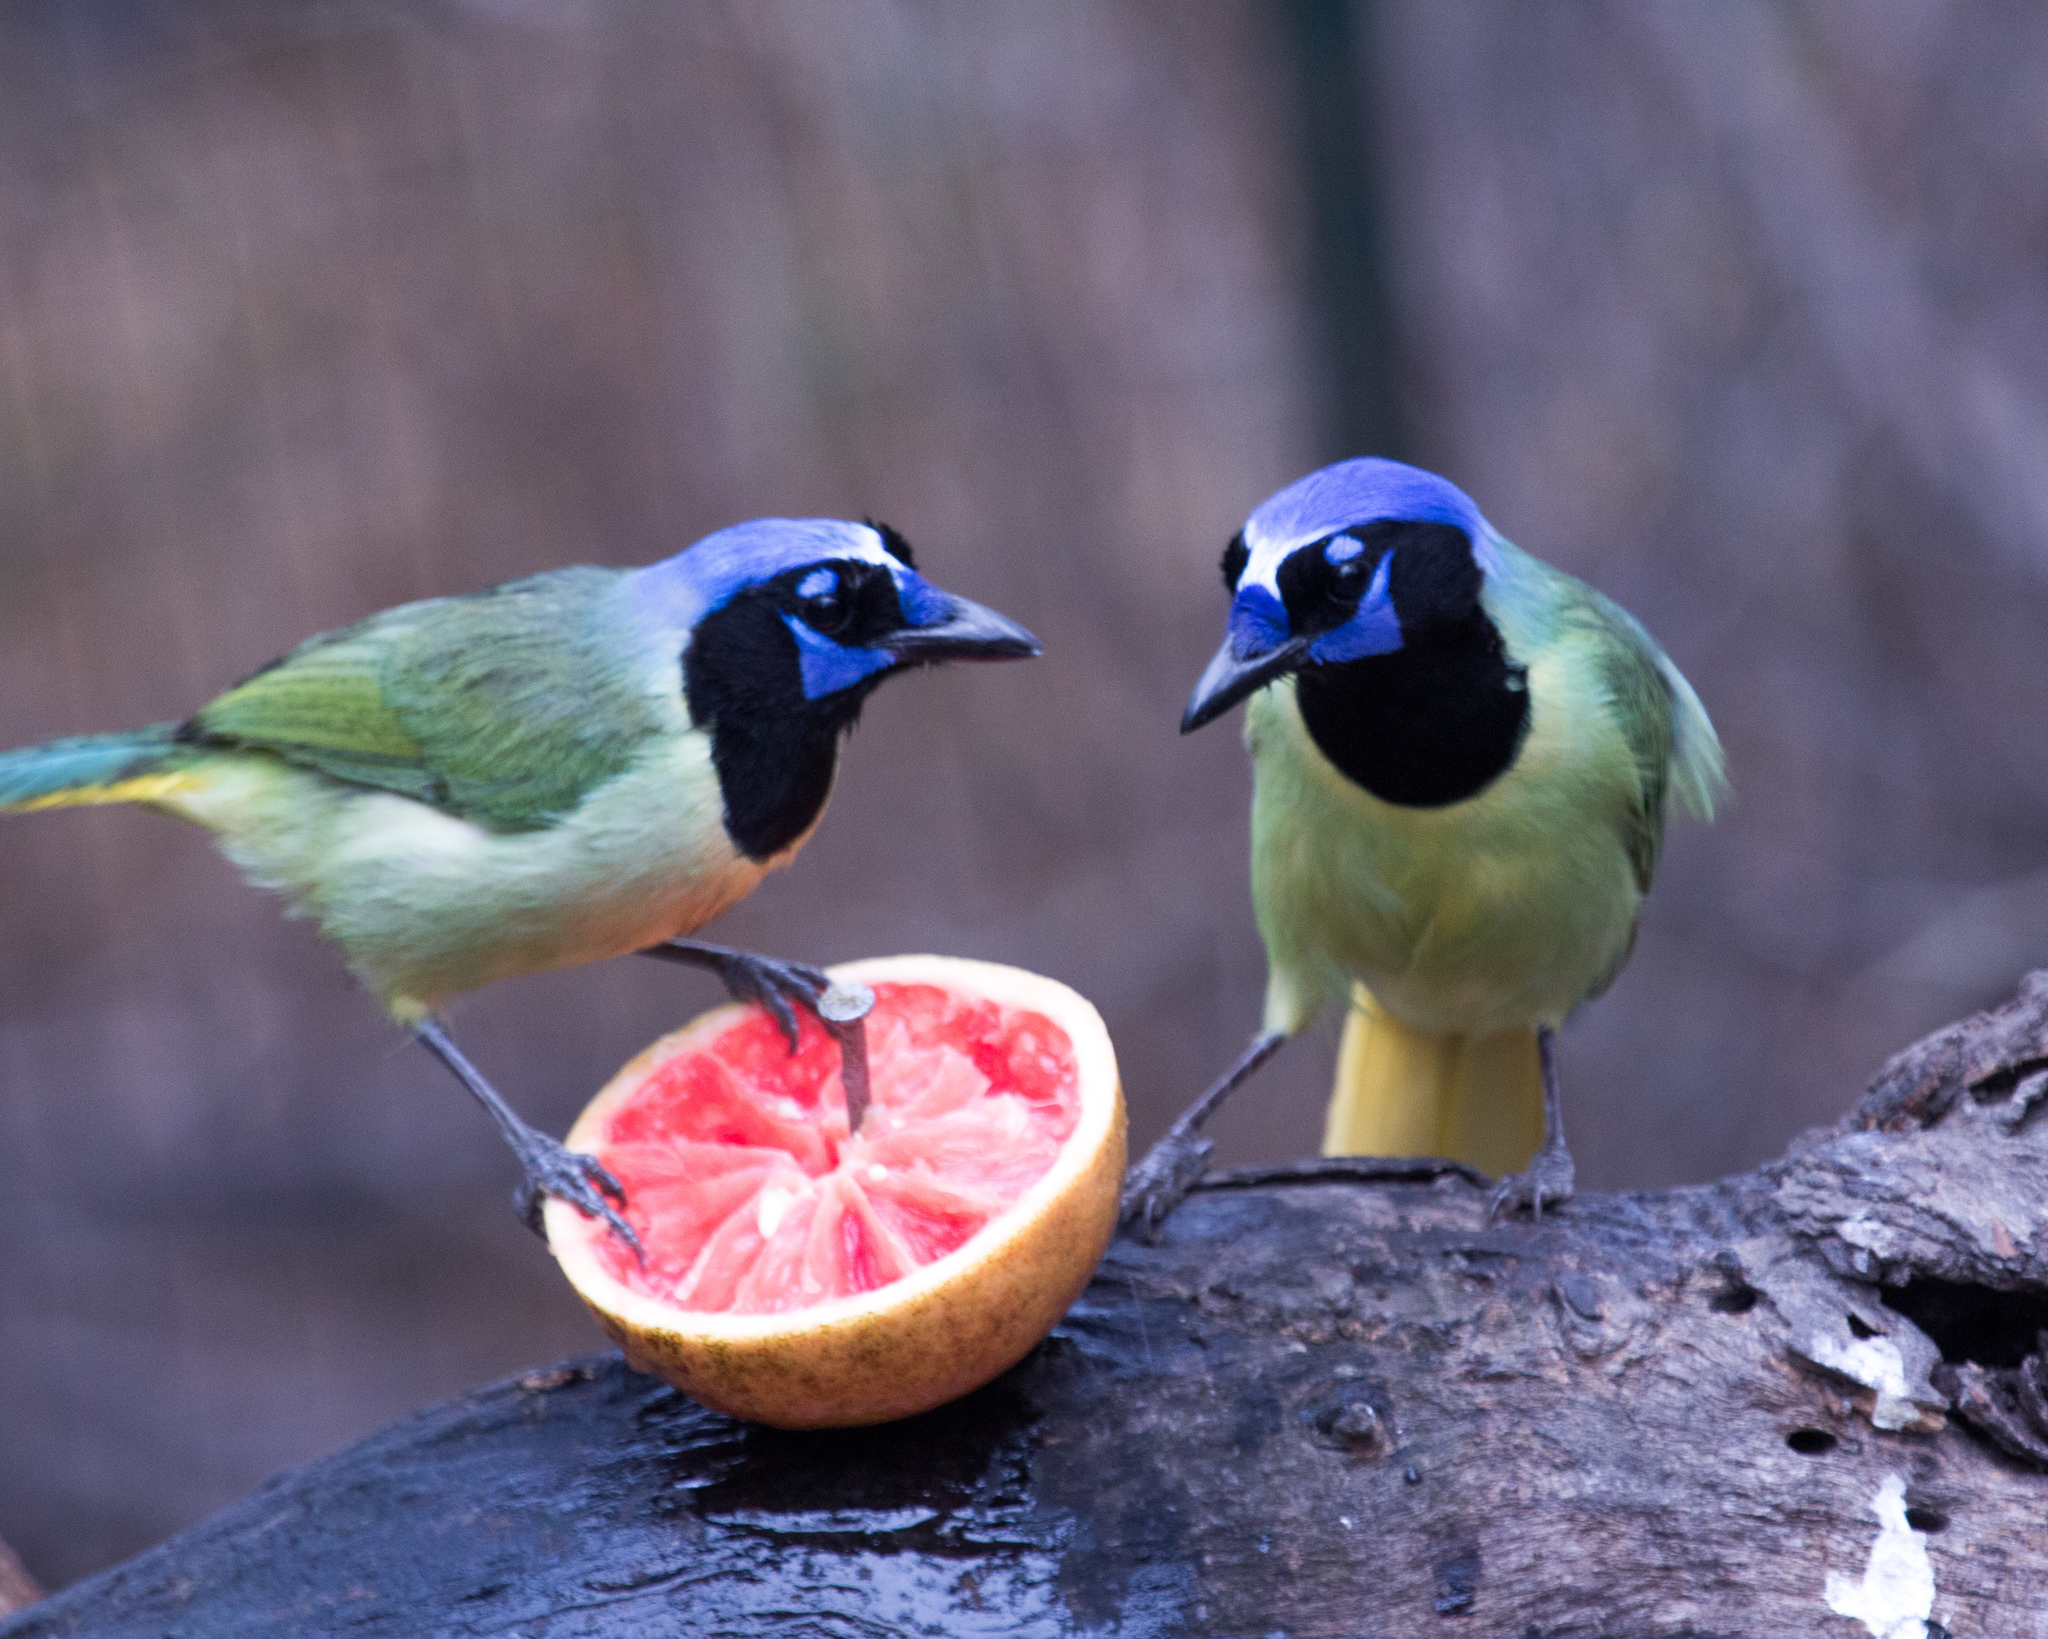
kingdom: Animalia
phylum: Chordata
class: Aves
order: Passeriformes
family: Corvidae
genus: Cyanocorax
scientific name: Cyanocorax yncas
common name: Green jay
